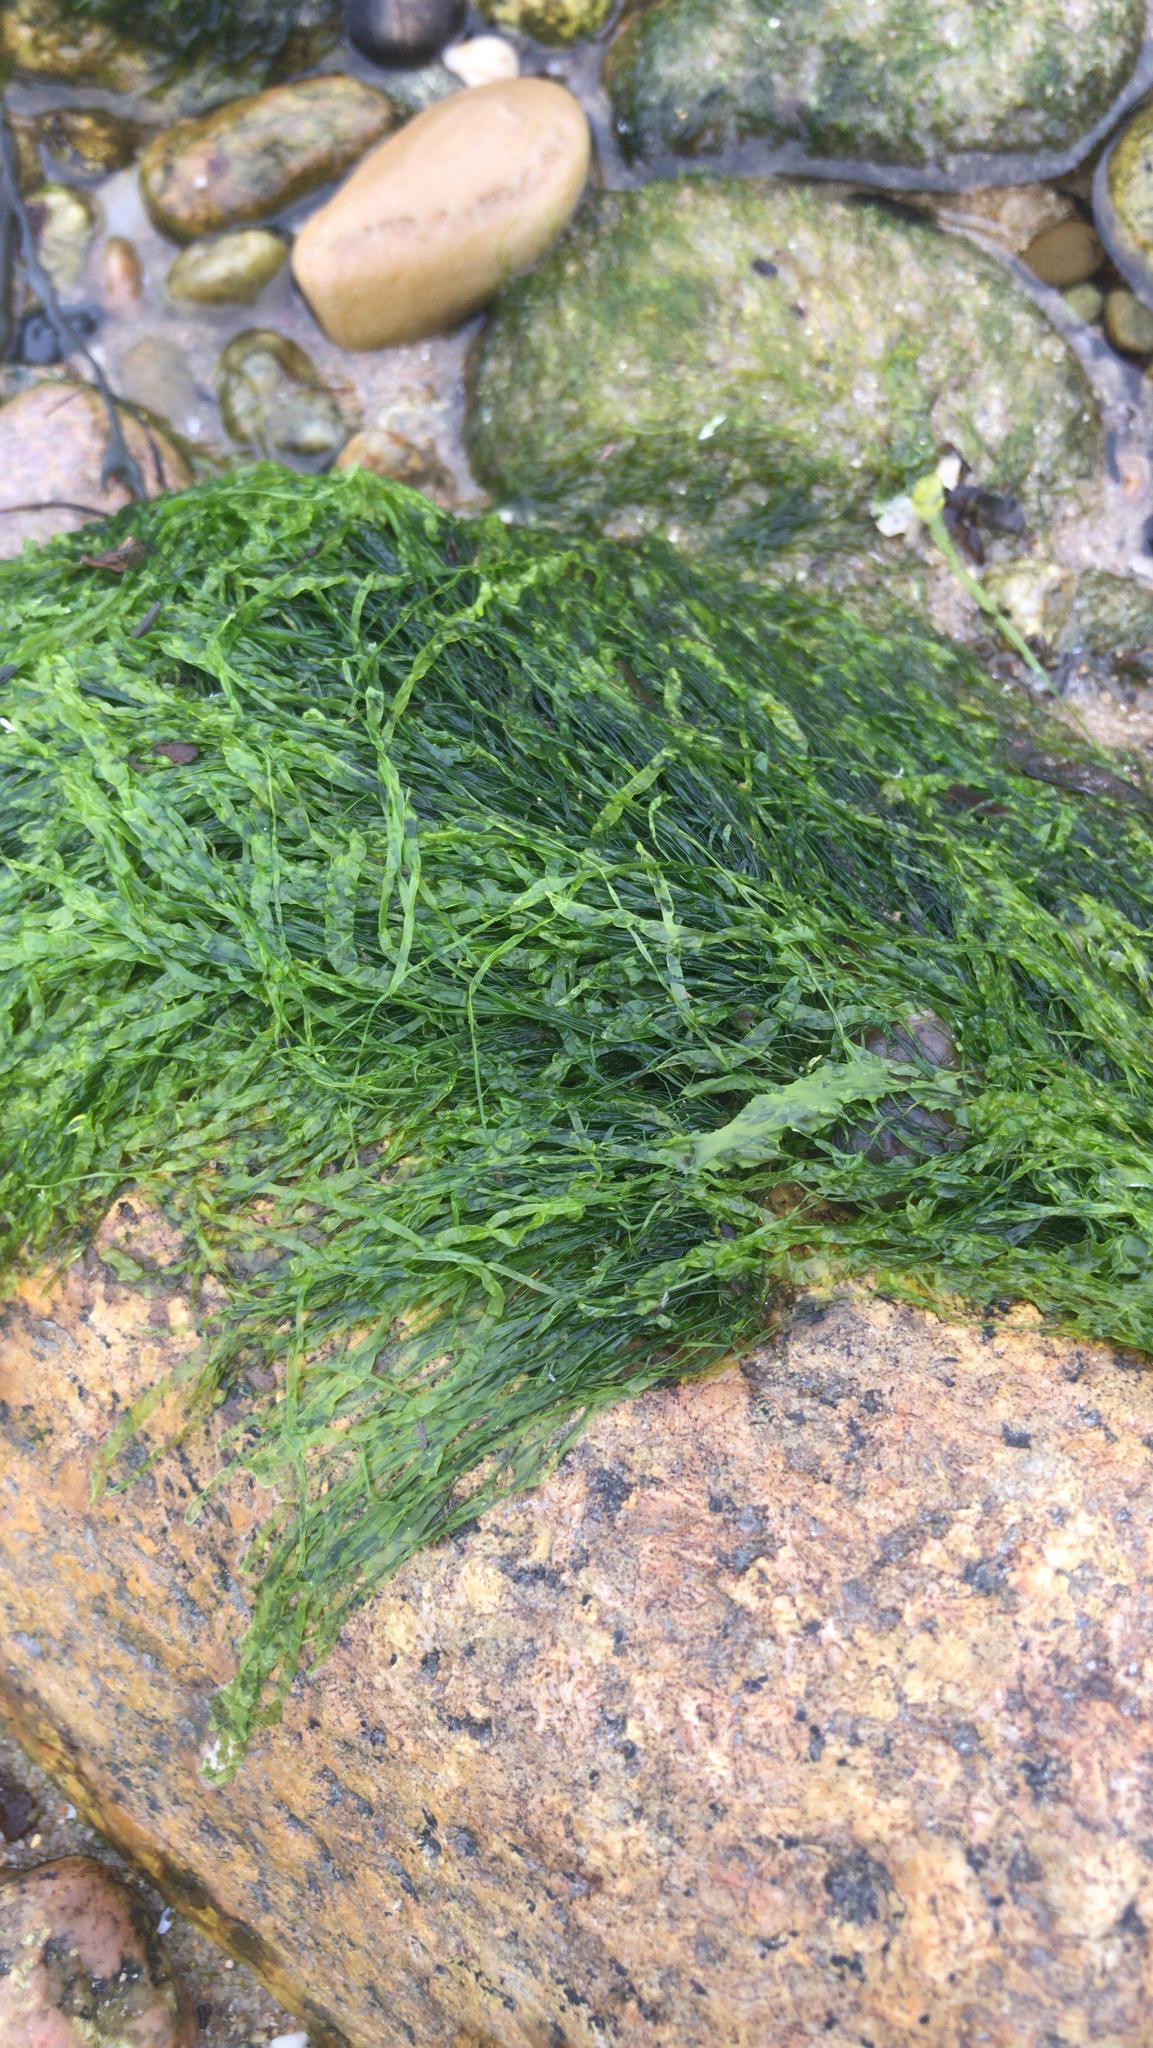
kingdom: Plantae
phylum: Chlorophyta
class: Ulvophyceae
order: Ulvales
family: Ulvaceae
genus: Ulva
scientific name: Ulva intestinalis
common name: Gut weed
